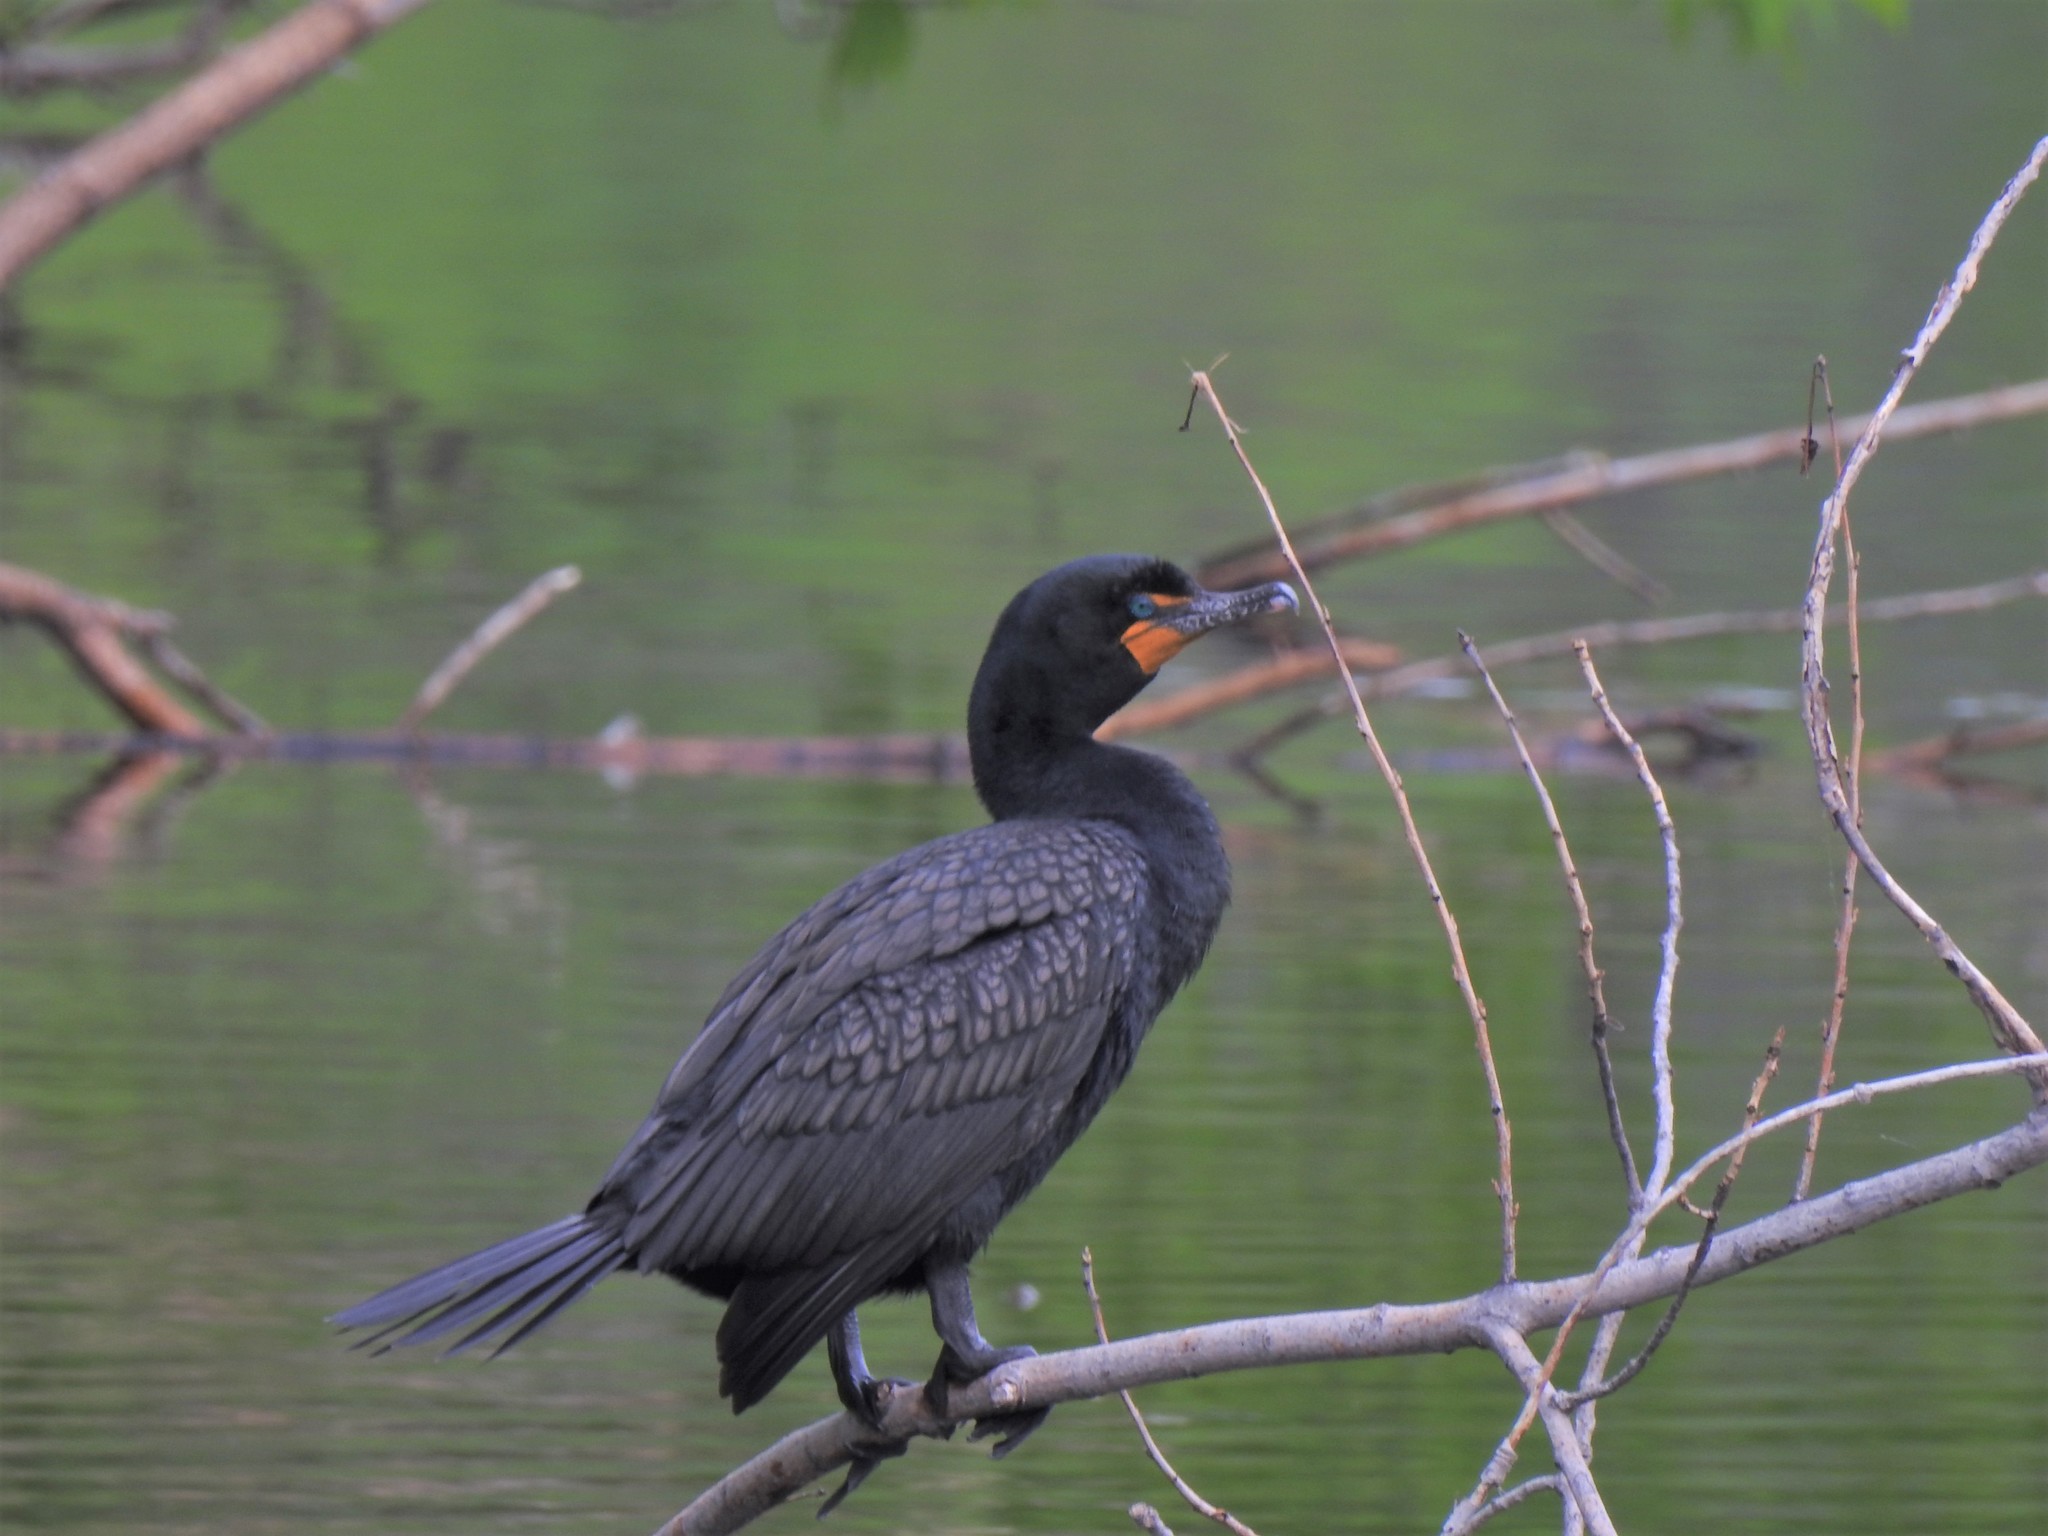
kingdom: Animalia
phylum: Chordata
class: Aves
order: Suliformes
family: Phalacrocoracidae
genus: Phalacrocorax
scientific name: Phalacrocorax auritus
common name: Double-crested cormorant
